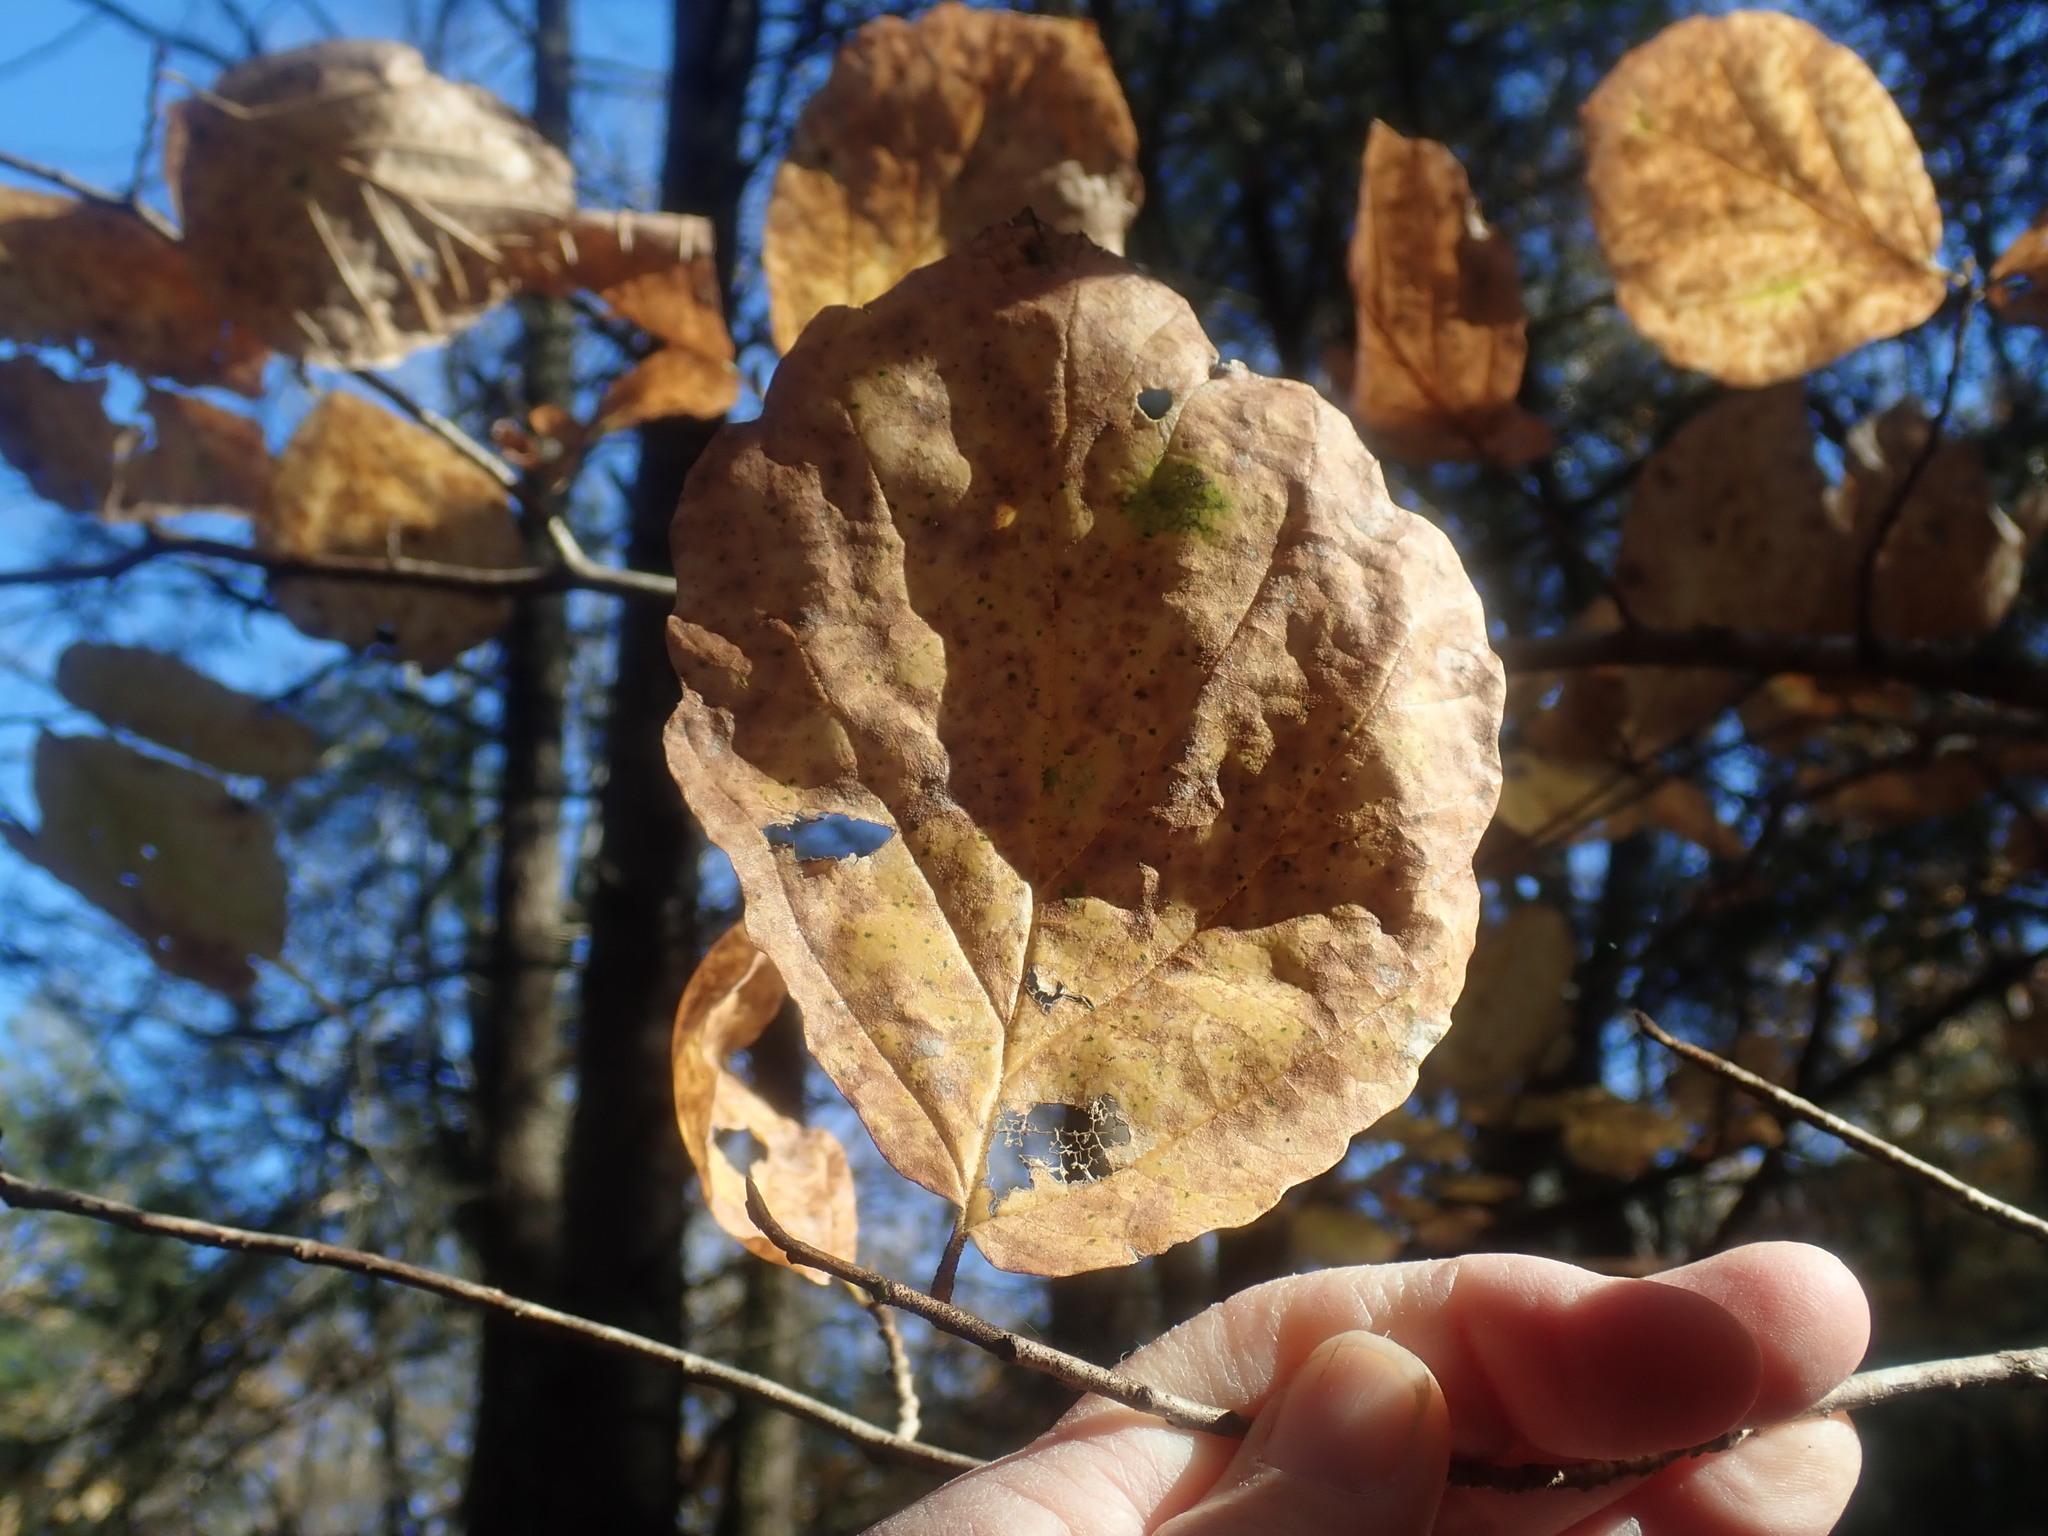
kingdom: Plantae
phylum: Tracheophyta
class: Magnoliopsida
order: Saxifragales
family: Hamamelidaceae
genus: Hamamelis
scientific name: Hamamelis virginiana
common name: Witch-hazel
